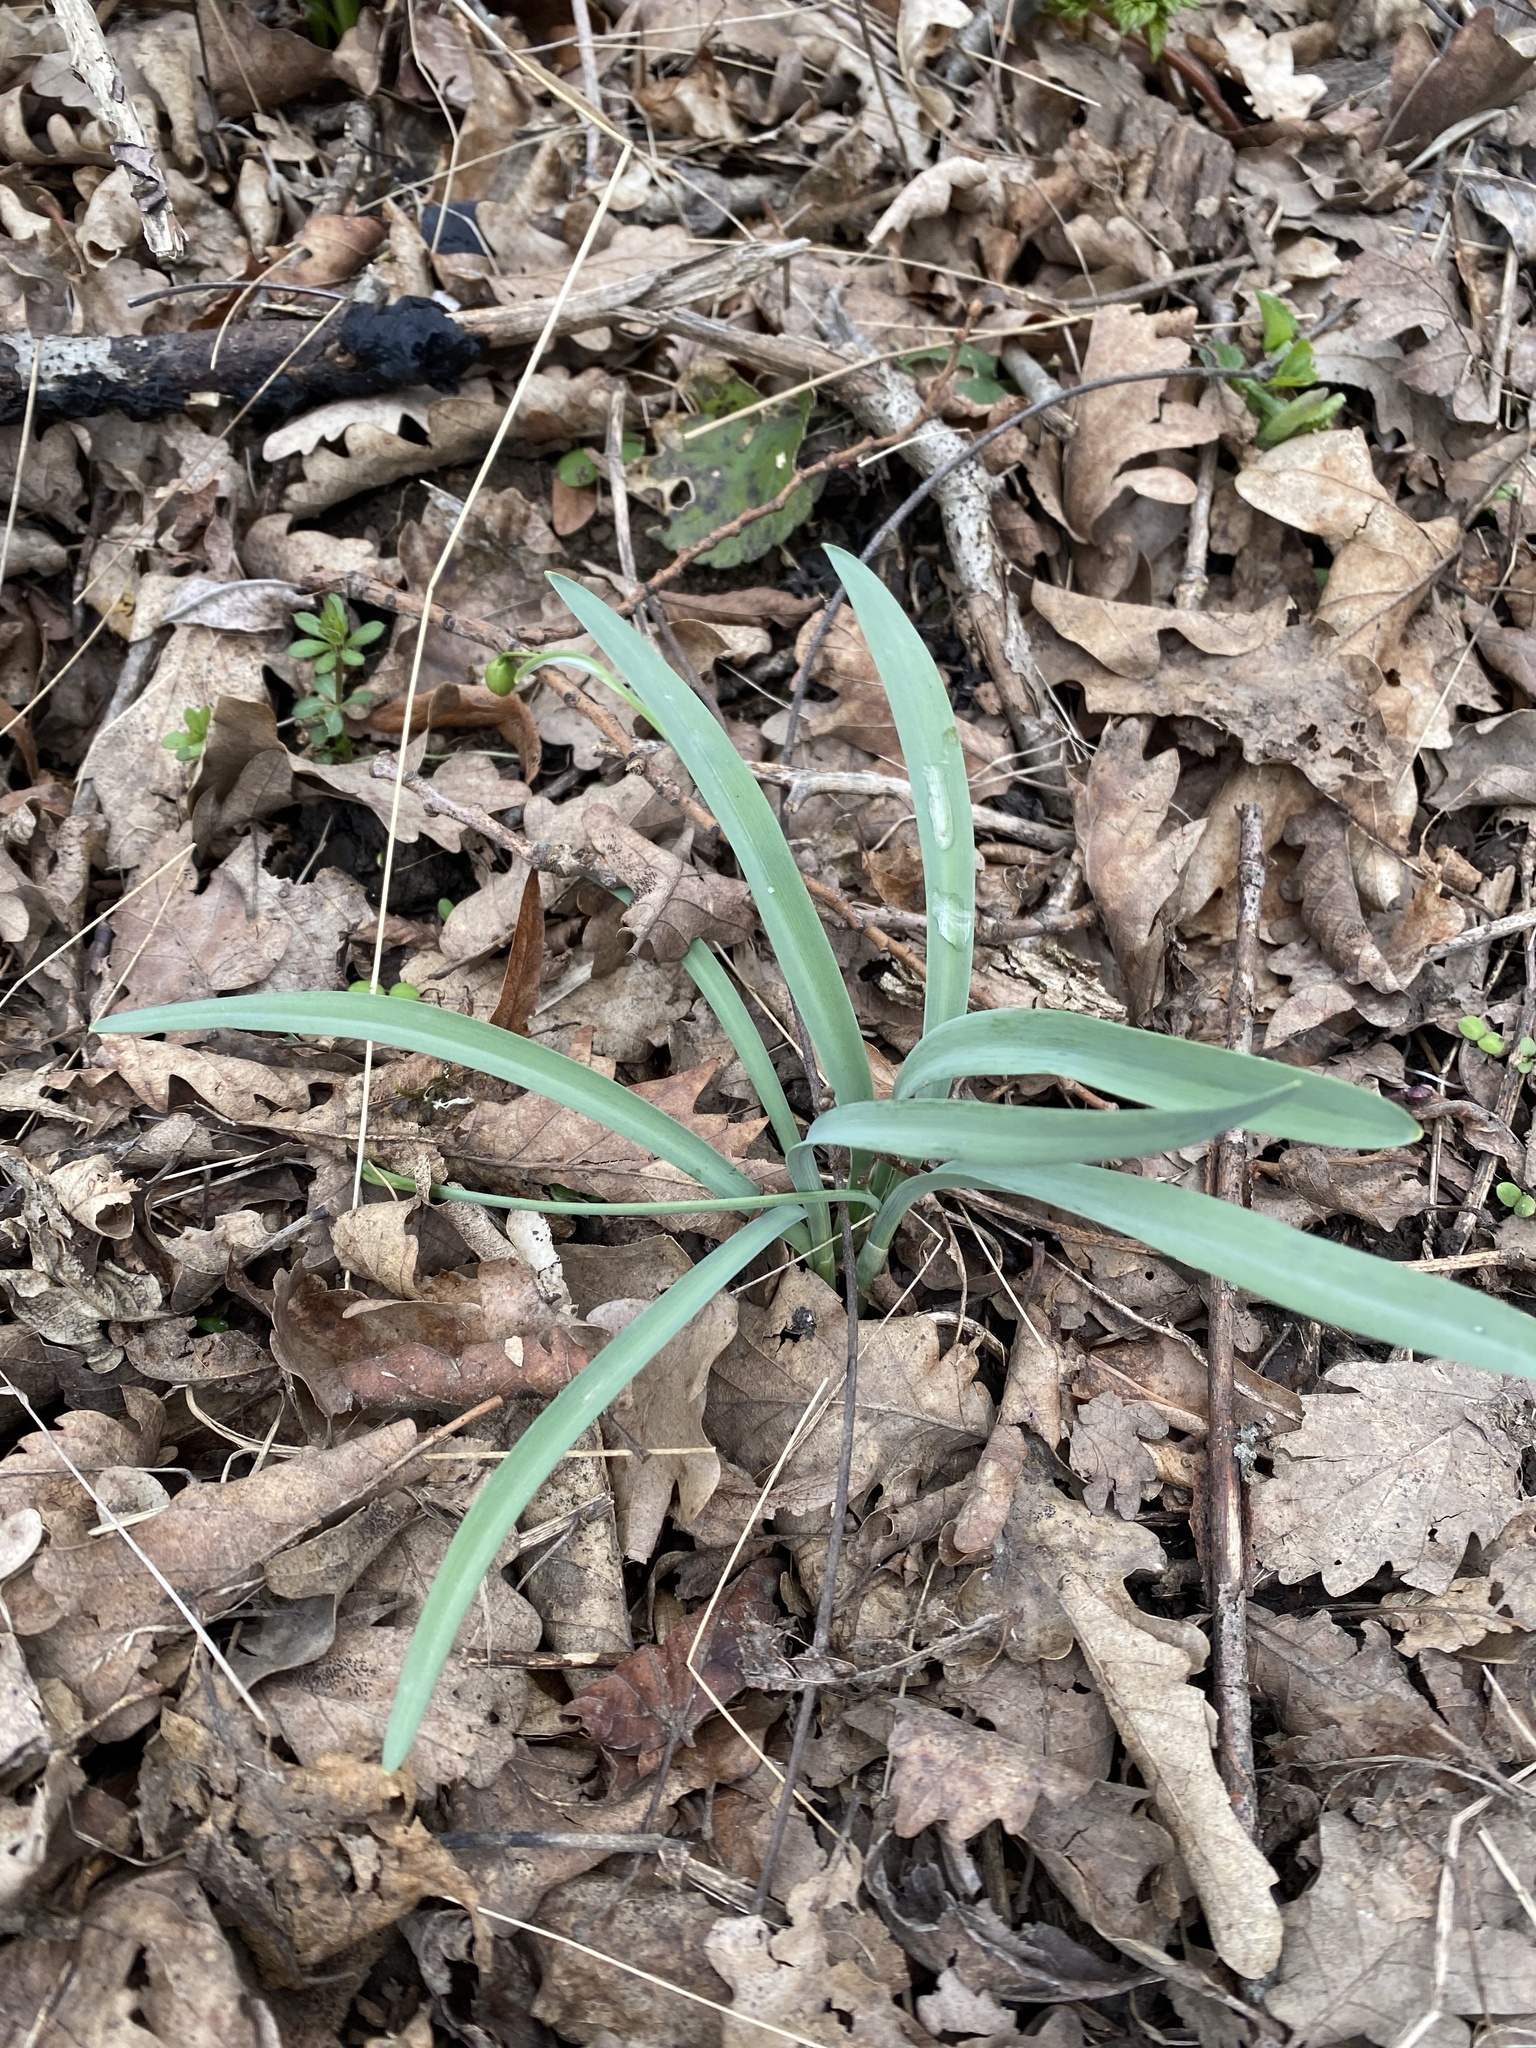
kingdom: Plantae
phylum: Tracheophyta
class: Liliopsida
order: Asparagales
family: Amaryllidaceae
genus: Galanthus
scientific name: Galanthus alpinus
